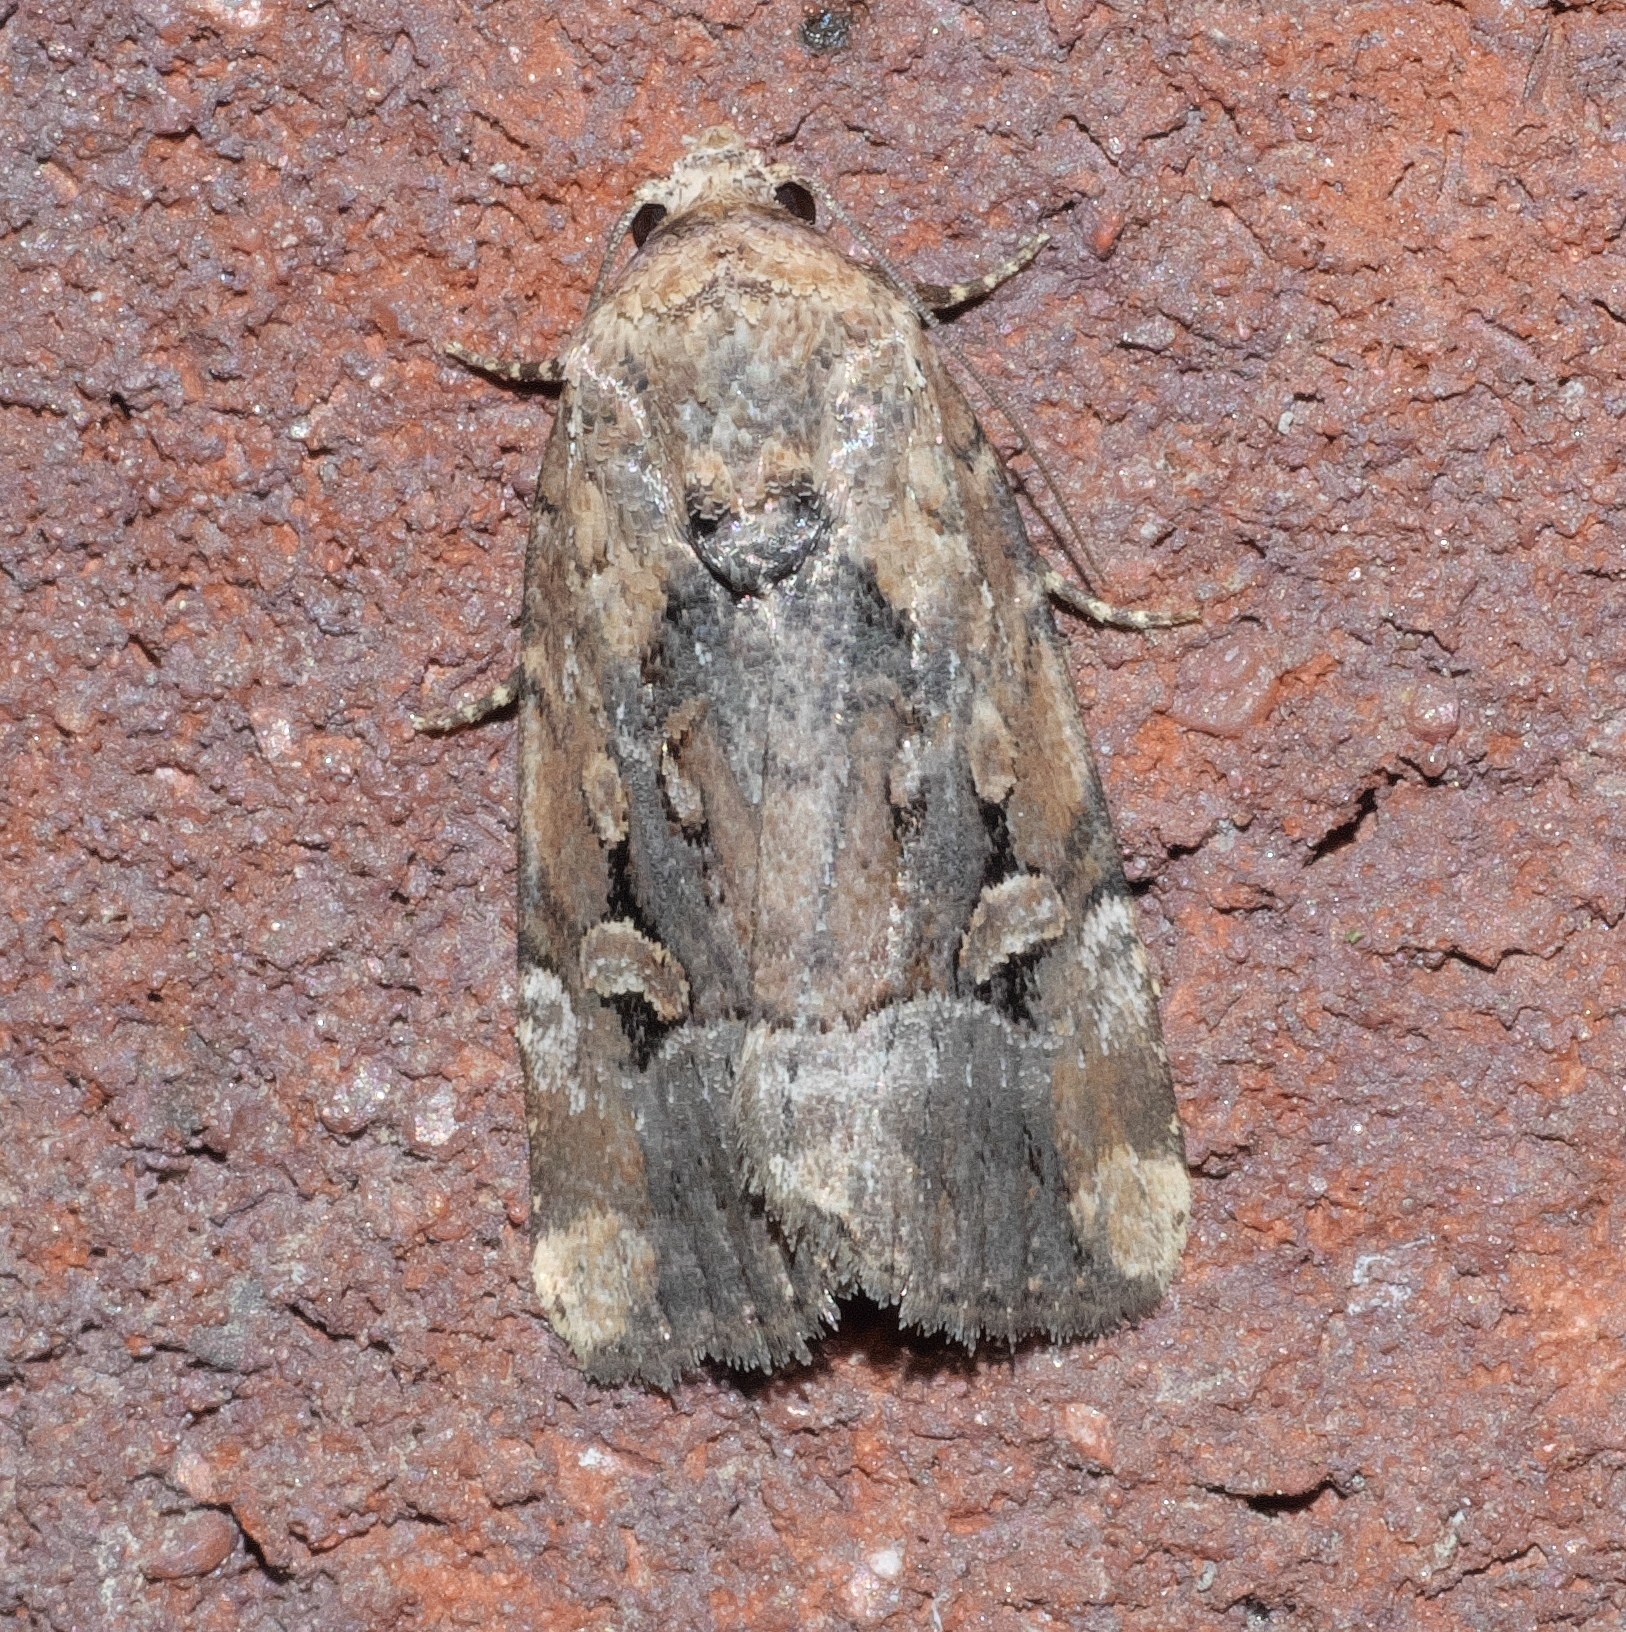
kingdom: Animalia
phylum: Arthropoda
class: Insecta
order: Lepidoptera
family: Noctuidae
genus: Elaphria
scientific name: Elaphria chalcedonia
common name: Chalcedony midget
